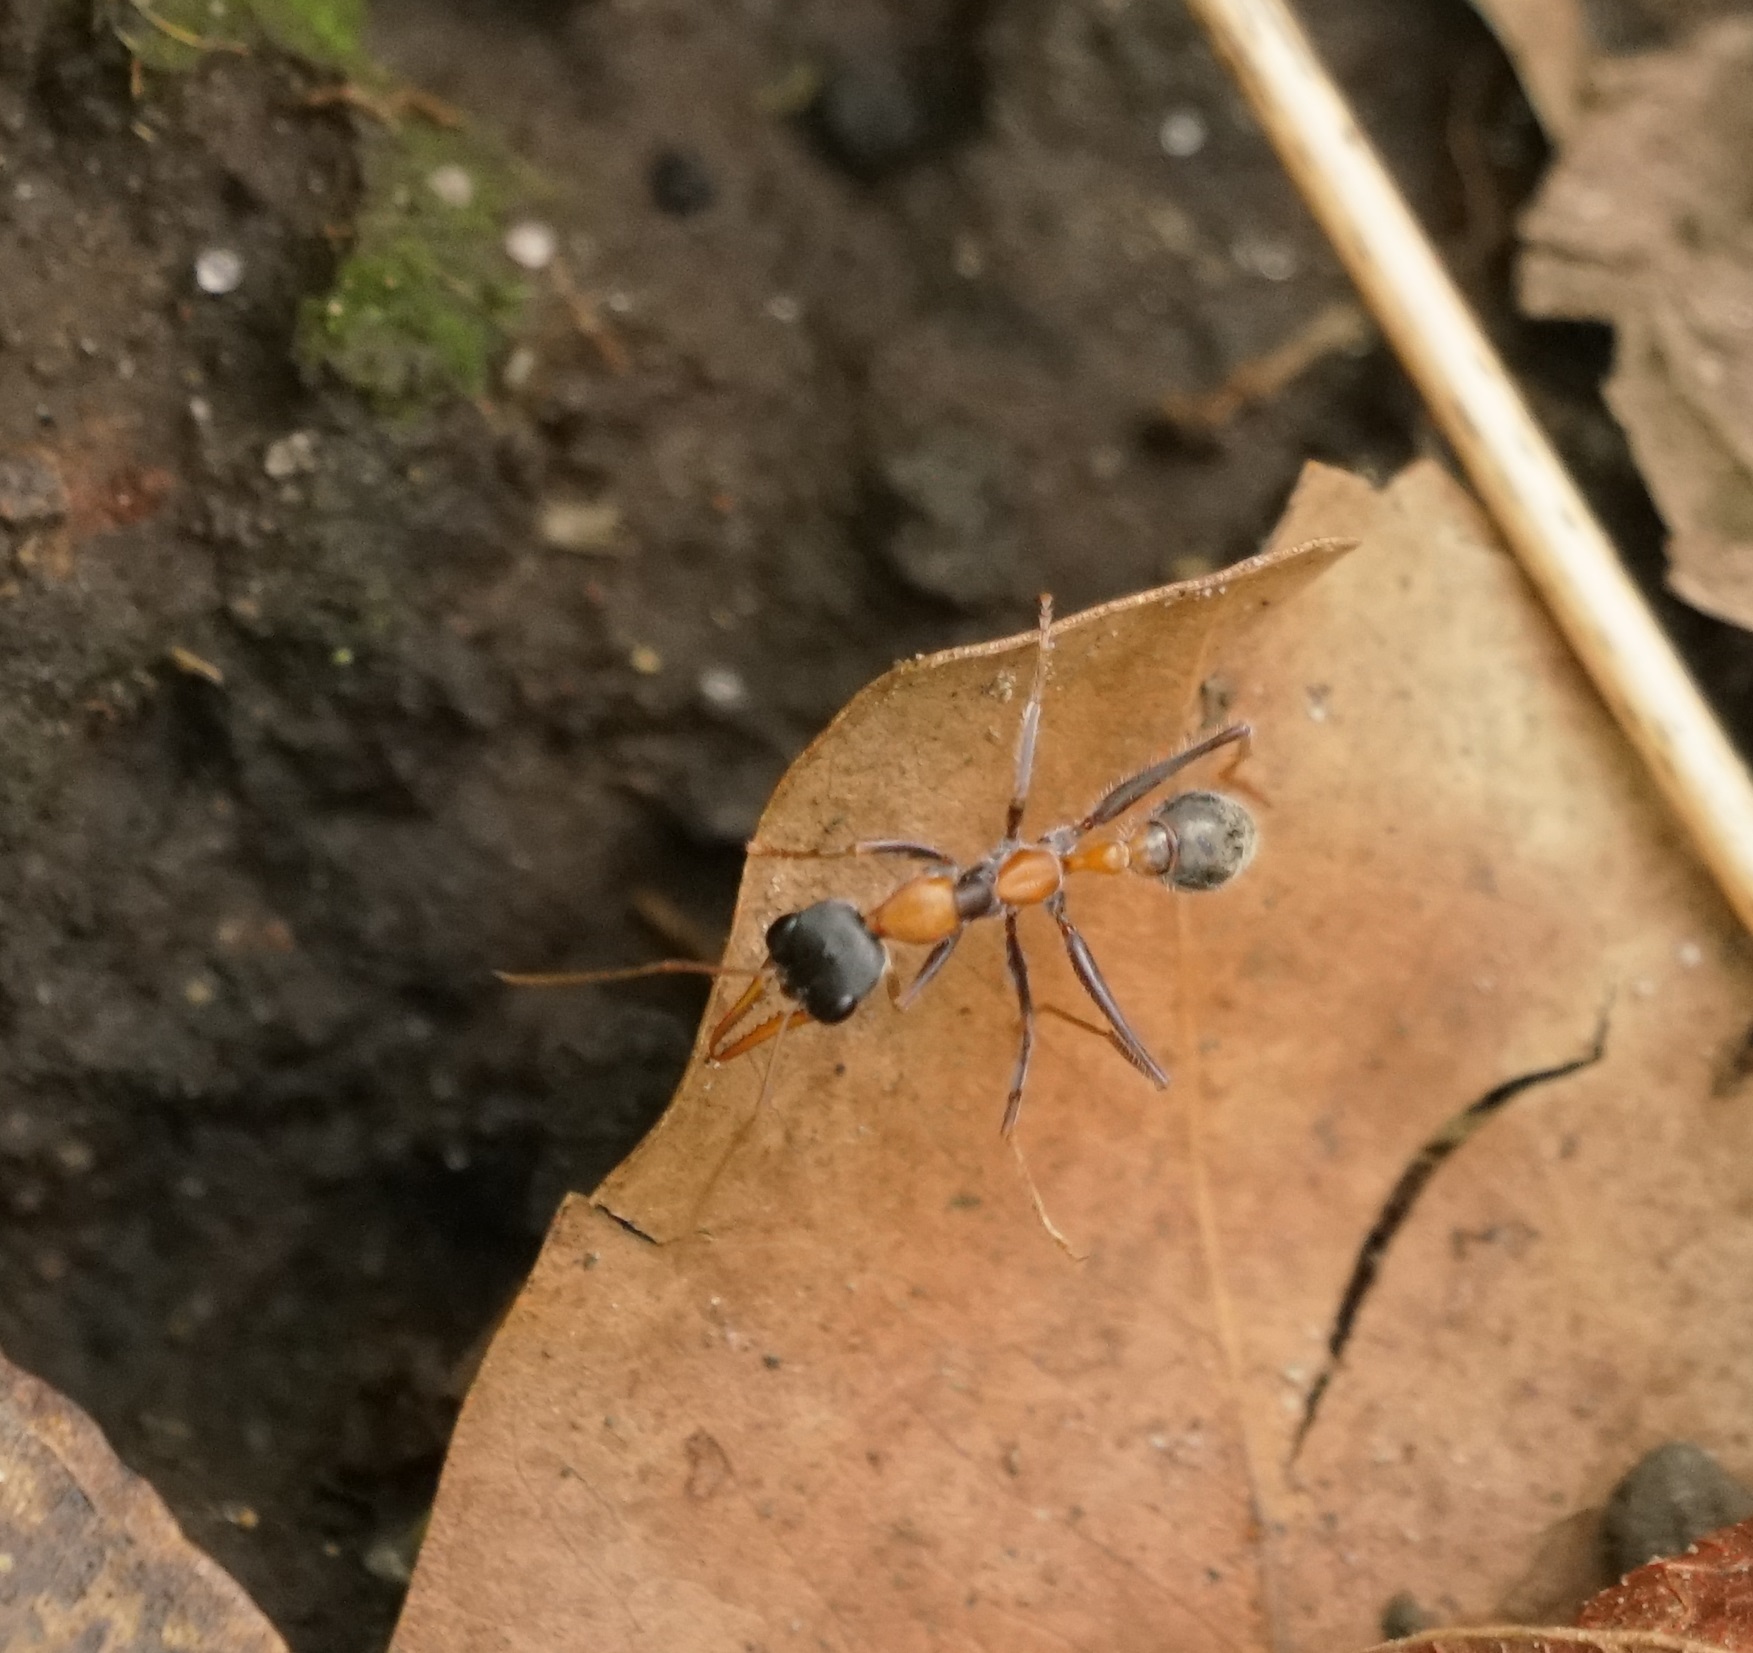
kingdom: Animalia
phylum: Arthropoda
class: Insecta
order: Hymenoptera
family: Formicidae
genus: Myrmecia
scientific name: Myrmecia nigrocincta
